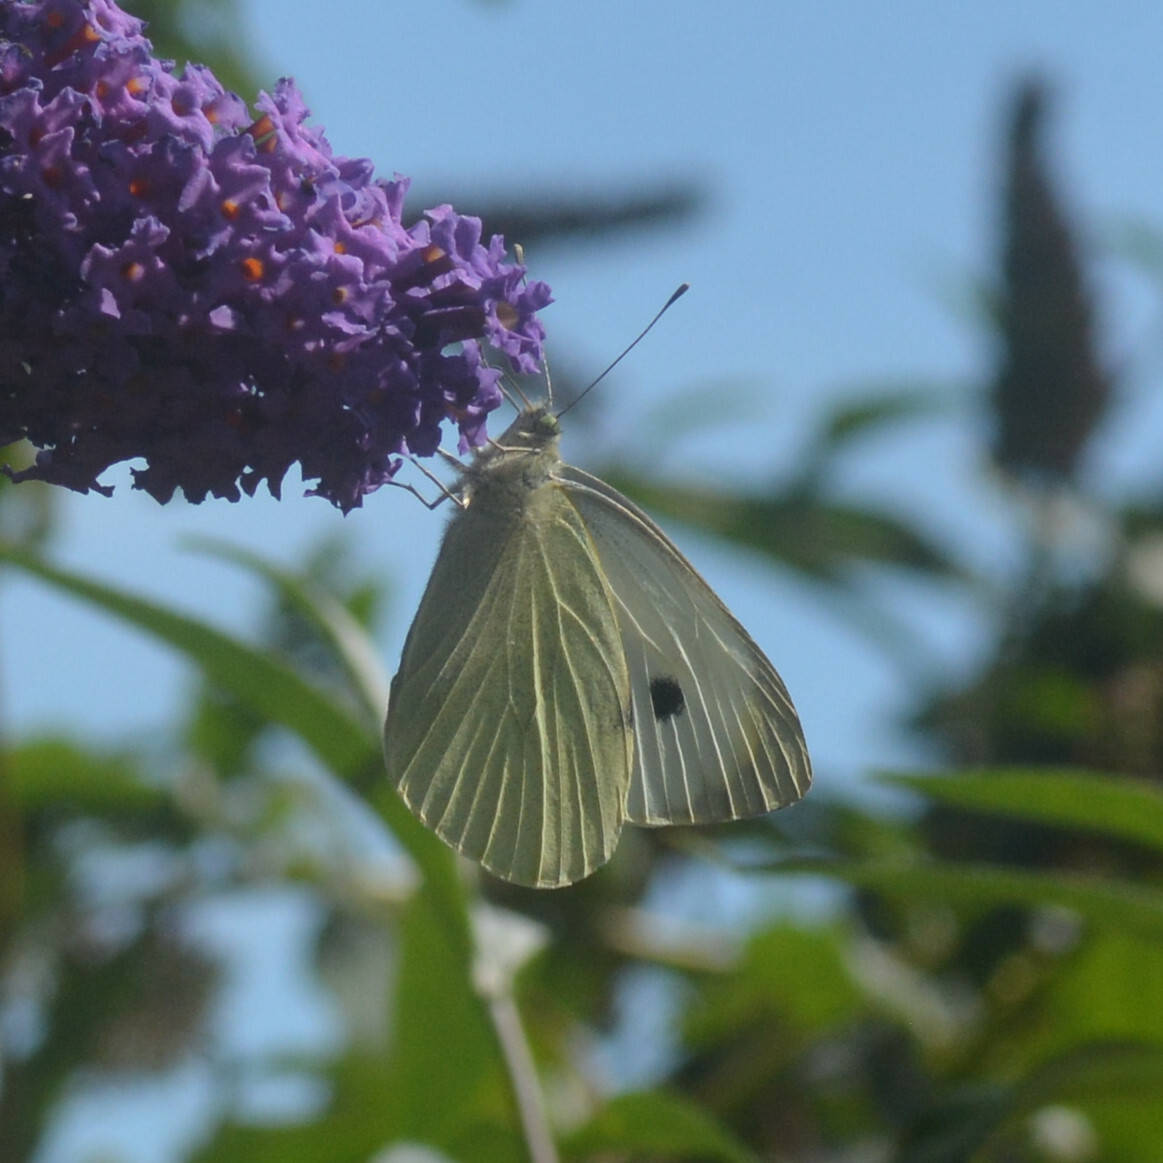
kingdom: Animalia
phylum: Arthropoda
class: Insecta
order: Lepidoptera
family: Pieridae
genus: Pieris
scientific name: Pieris brassicae
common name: Large white
